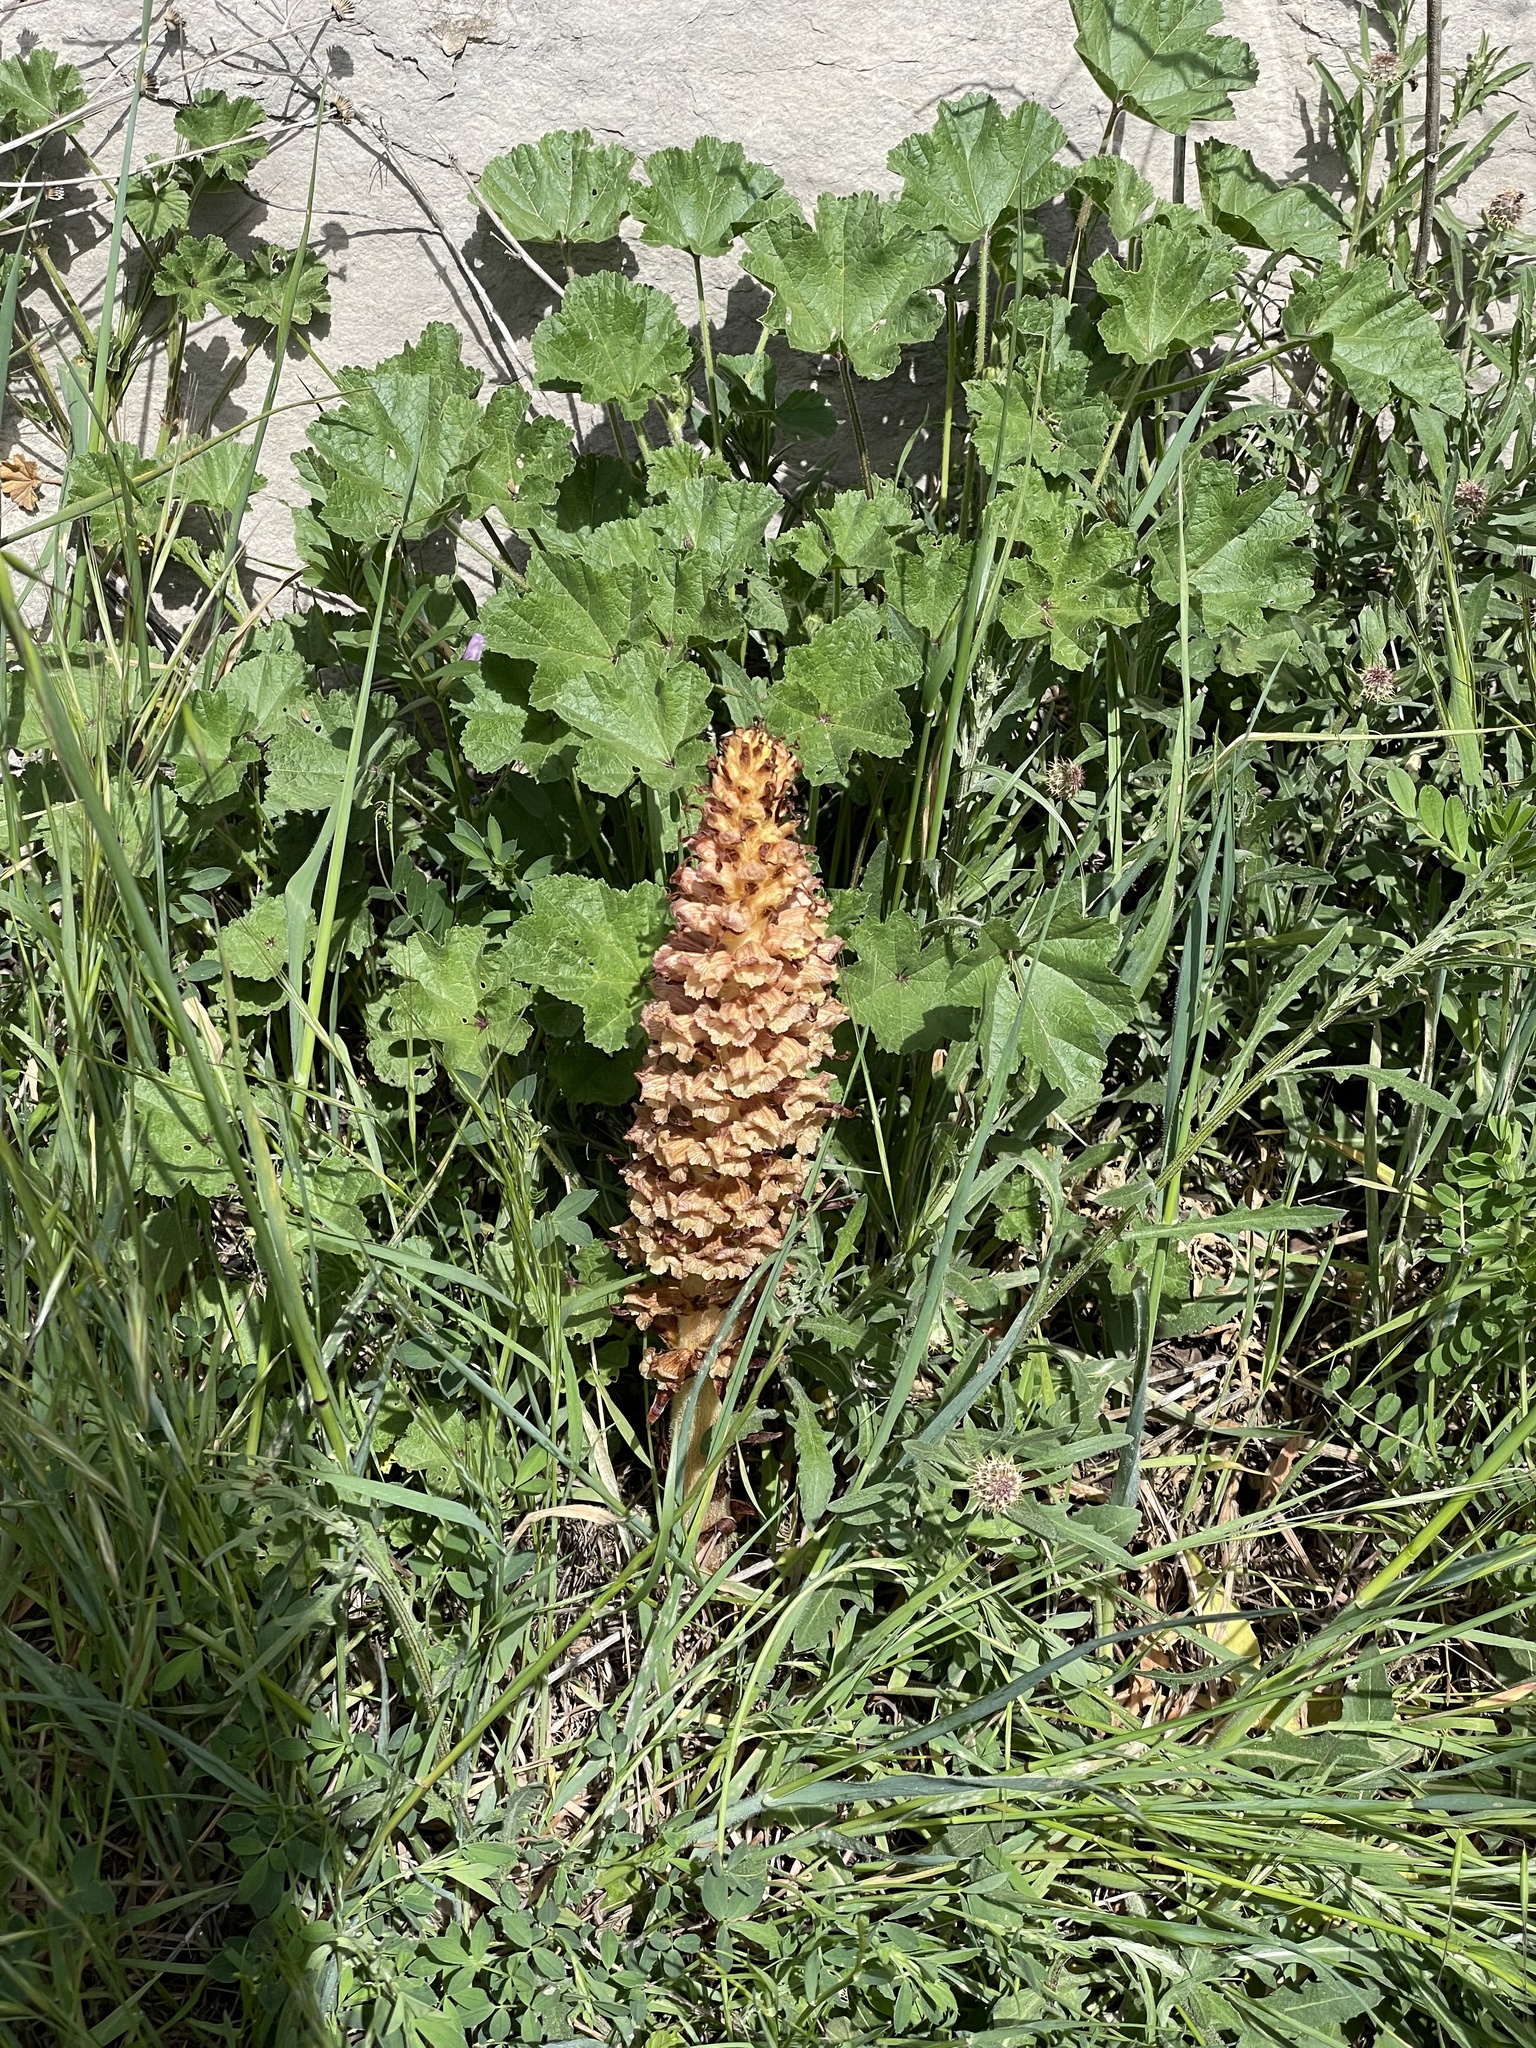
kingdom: Plantae
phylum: Tracheophyta
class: Magnoliopsida
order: Lamiales
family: Orobanchaceae
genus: Orobanche
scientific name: Orobanche leptantha
